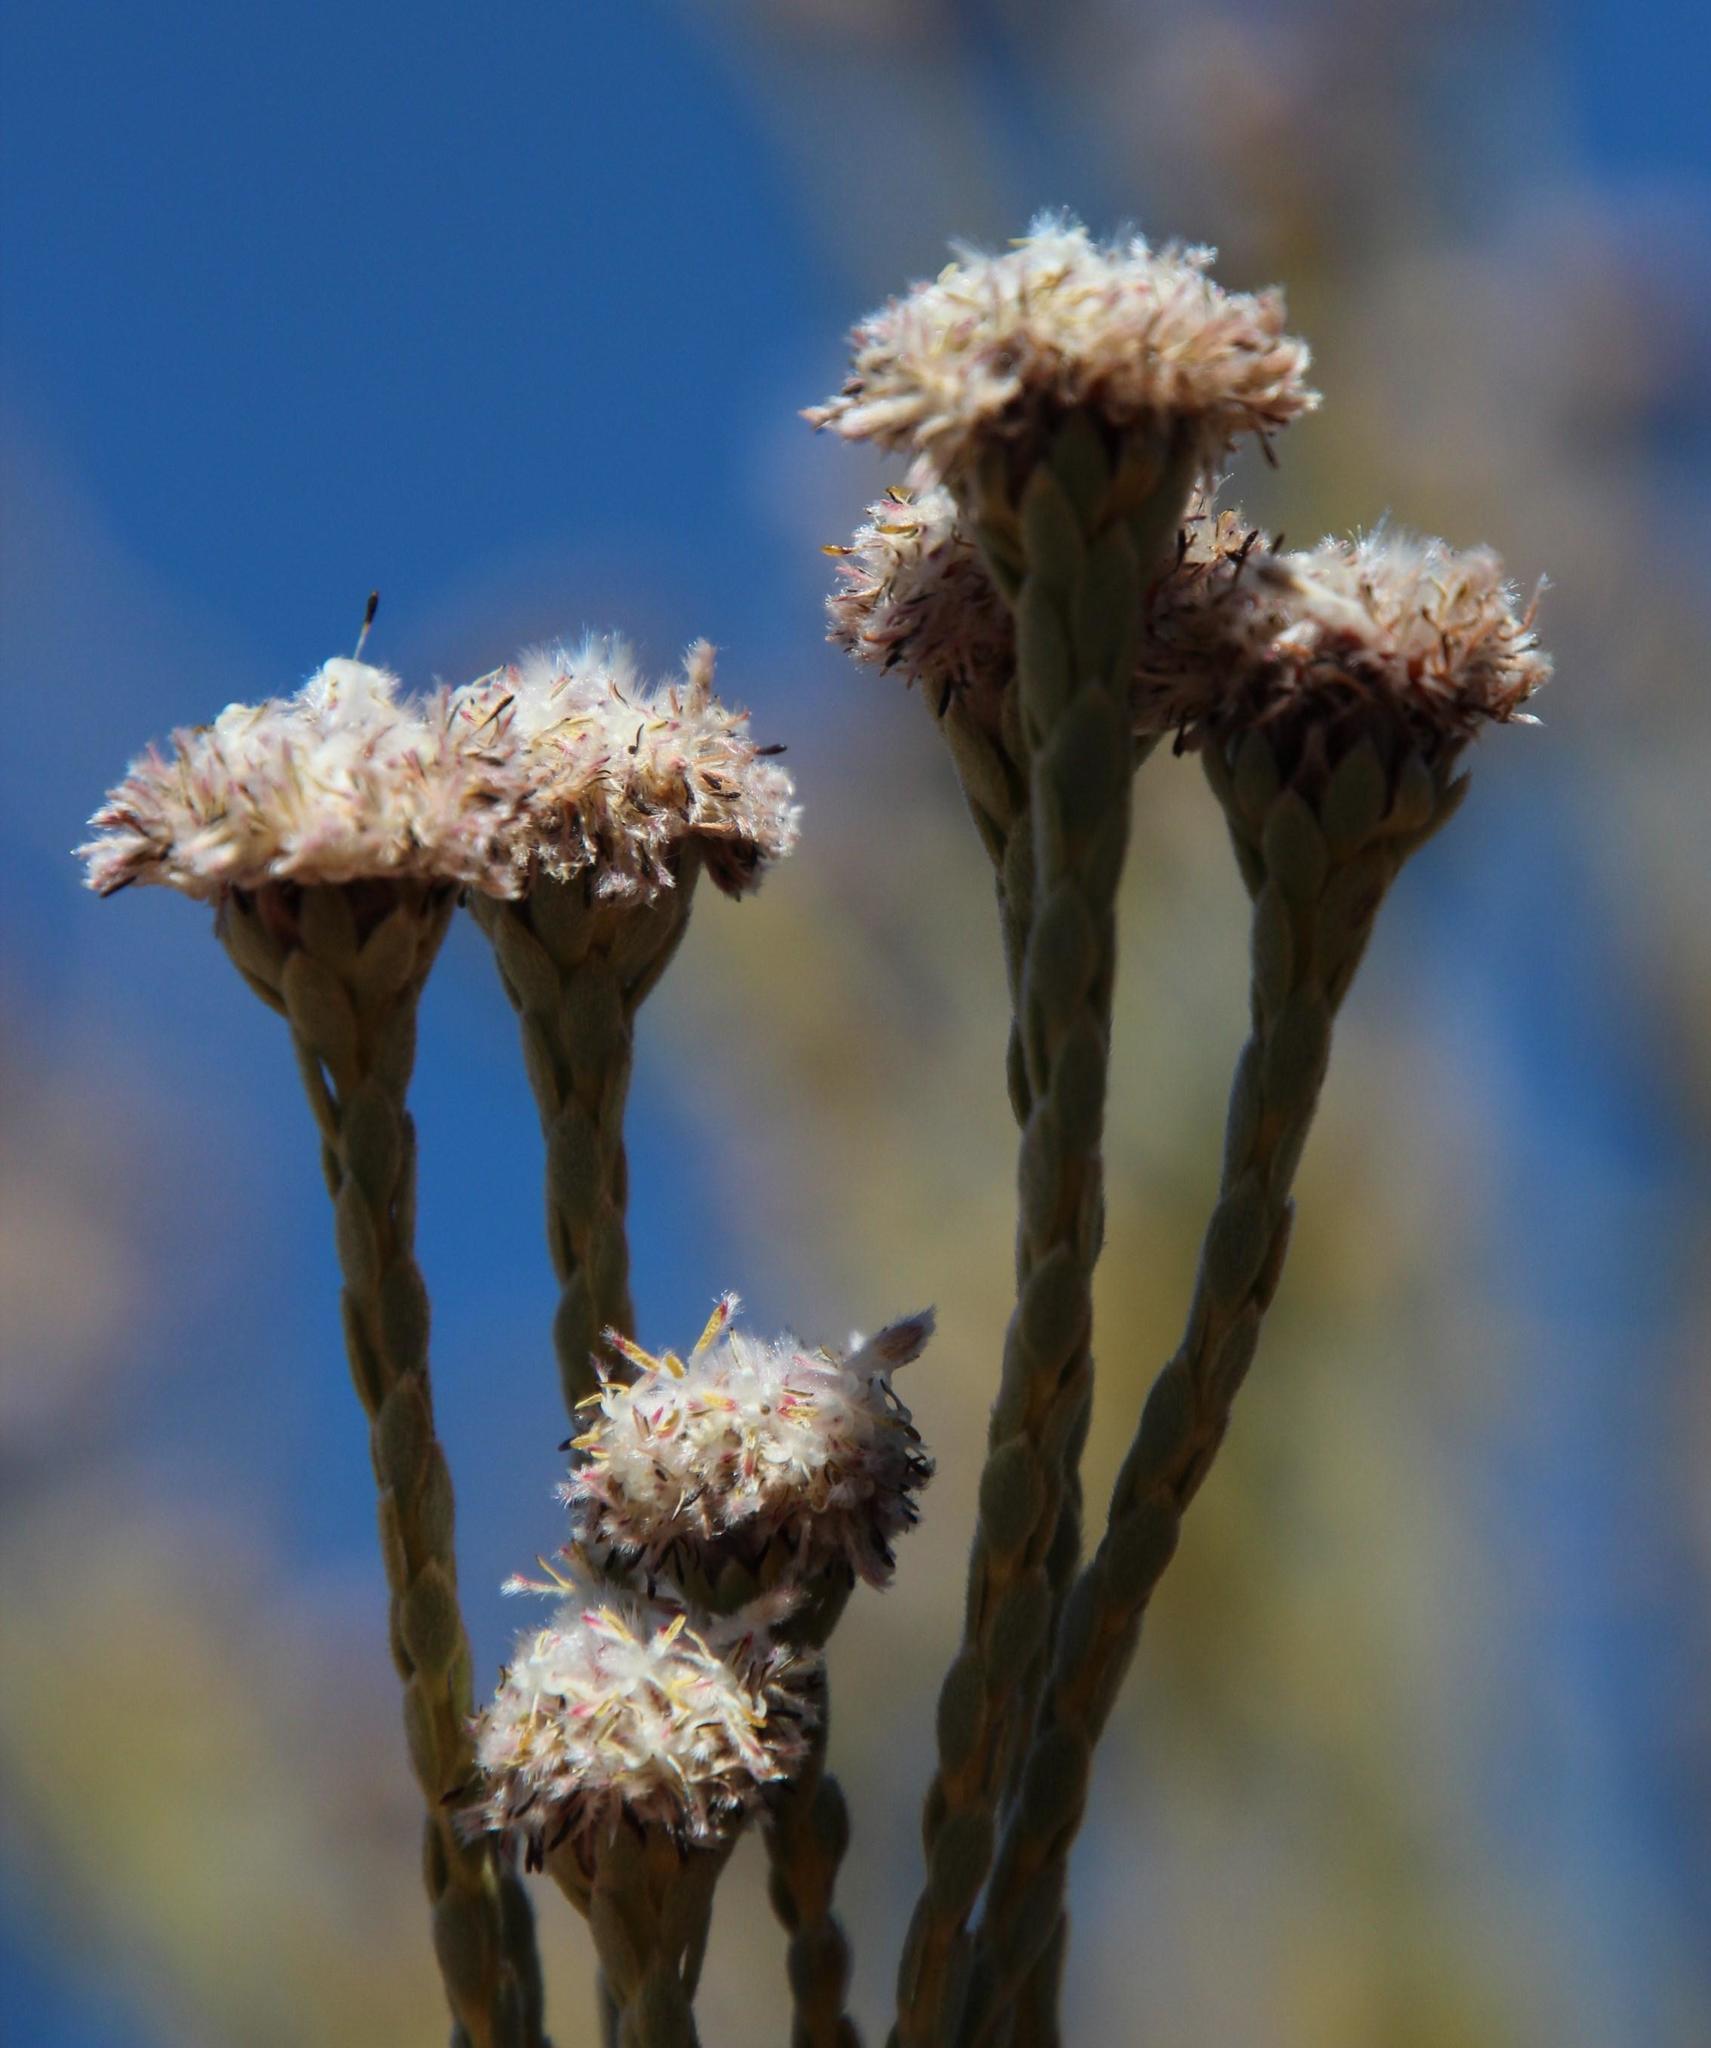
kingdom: Plantae
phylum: Tracheophyta
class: Magnoliopsida
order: Proteales
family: Proteaceae
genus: Leucadendron
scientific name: Leucadendron dubium
